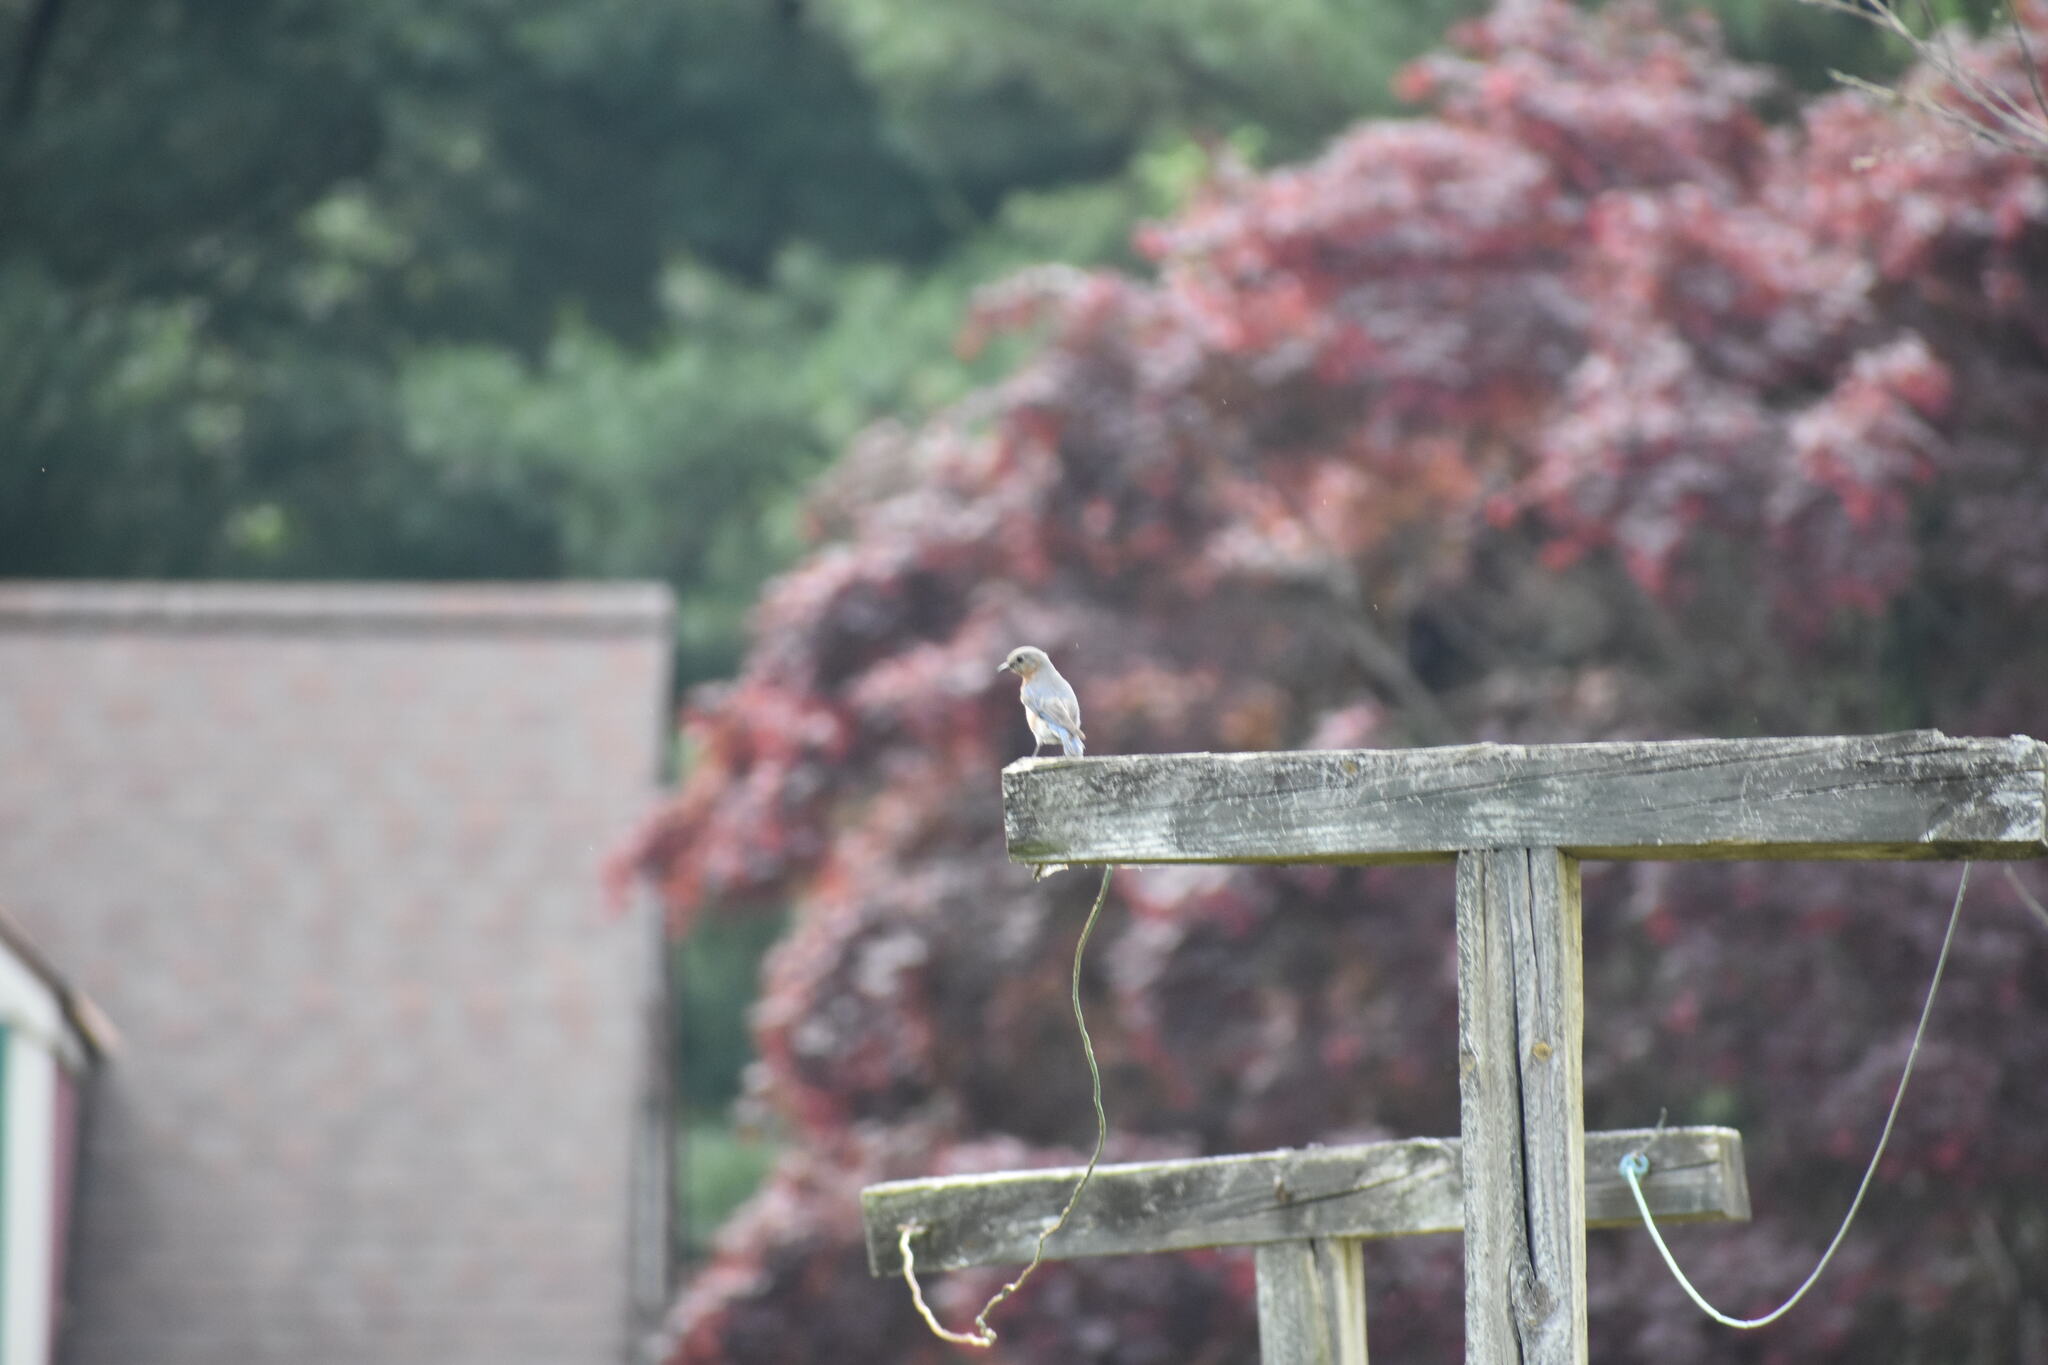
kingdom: Animalia
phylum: Chordata
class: Aves
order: Passeriformes
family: Turdidae
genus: Sialia
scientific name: Sialia sialis
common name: Eastern bluebird
